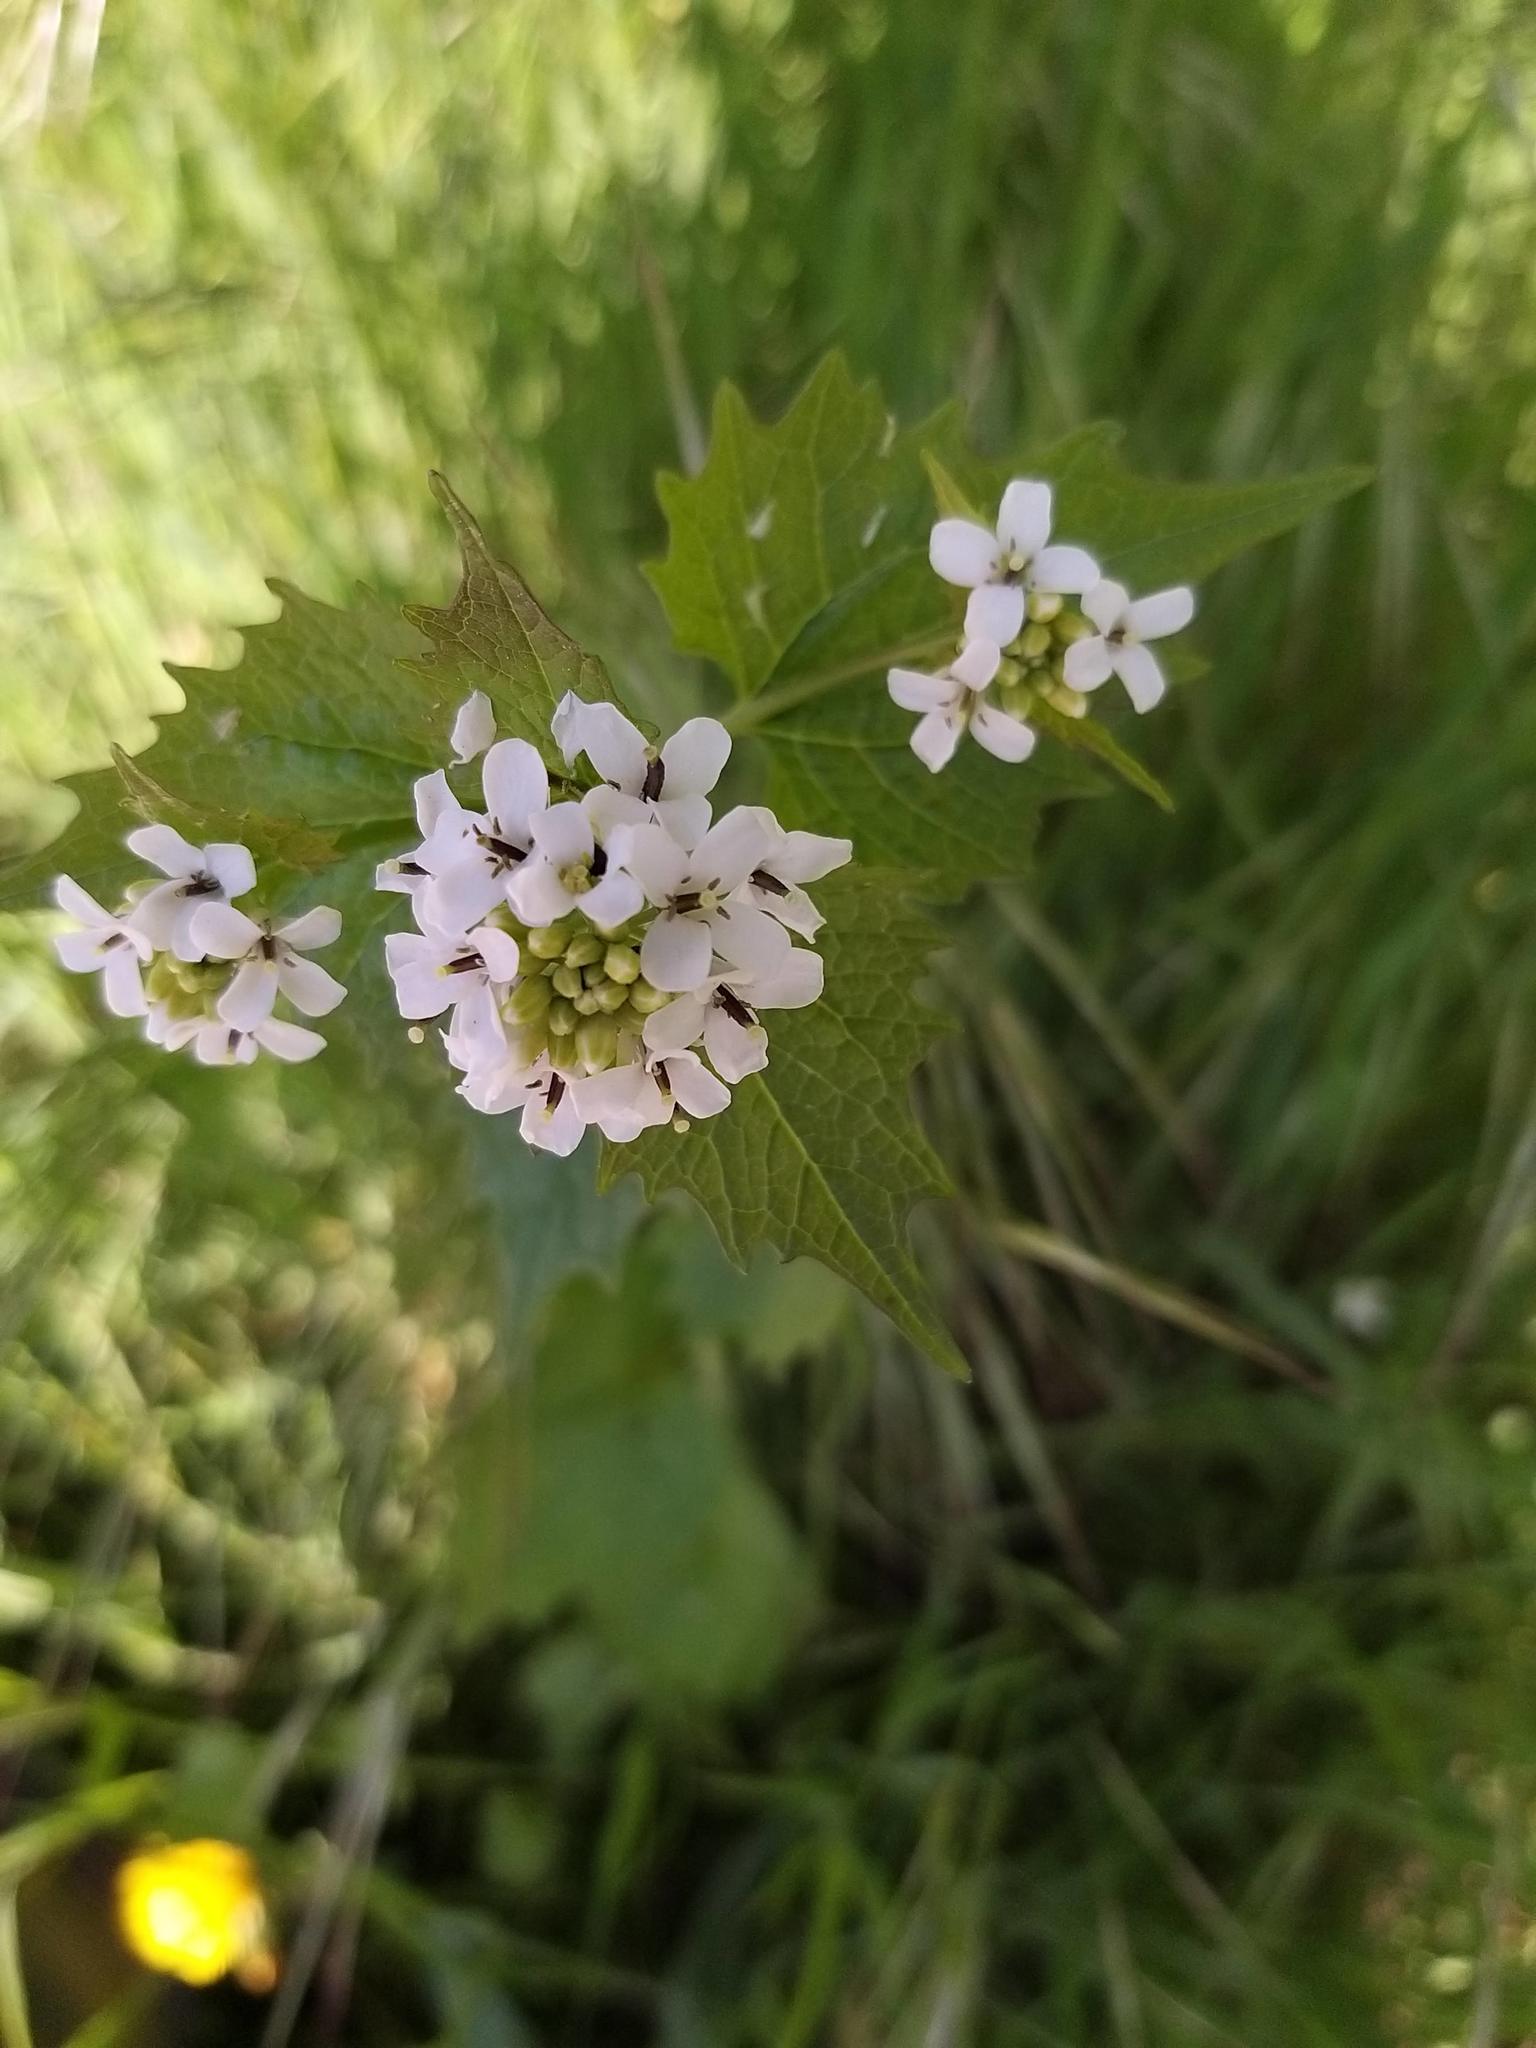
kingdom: Plantae
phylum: Tracheophyta
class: Magnoliopsida
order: Brassicales
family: Brassicaceae
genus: Alliaria
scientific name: Alliaria petiolata
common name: Garlic mustard
